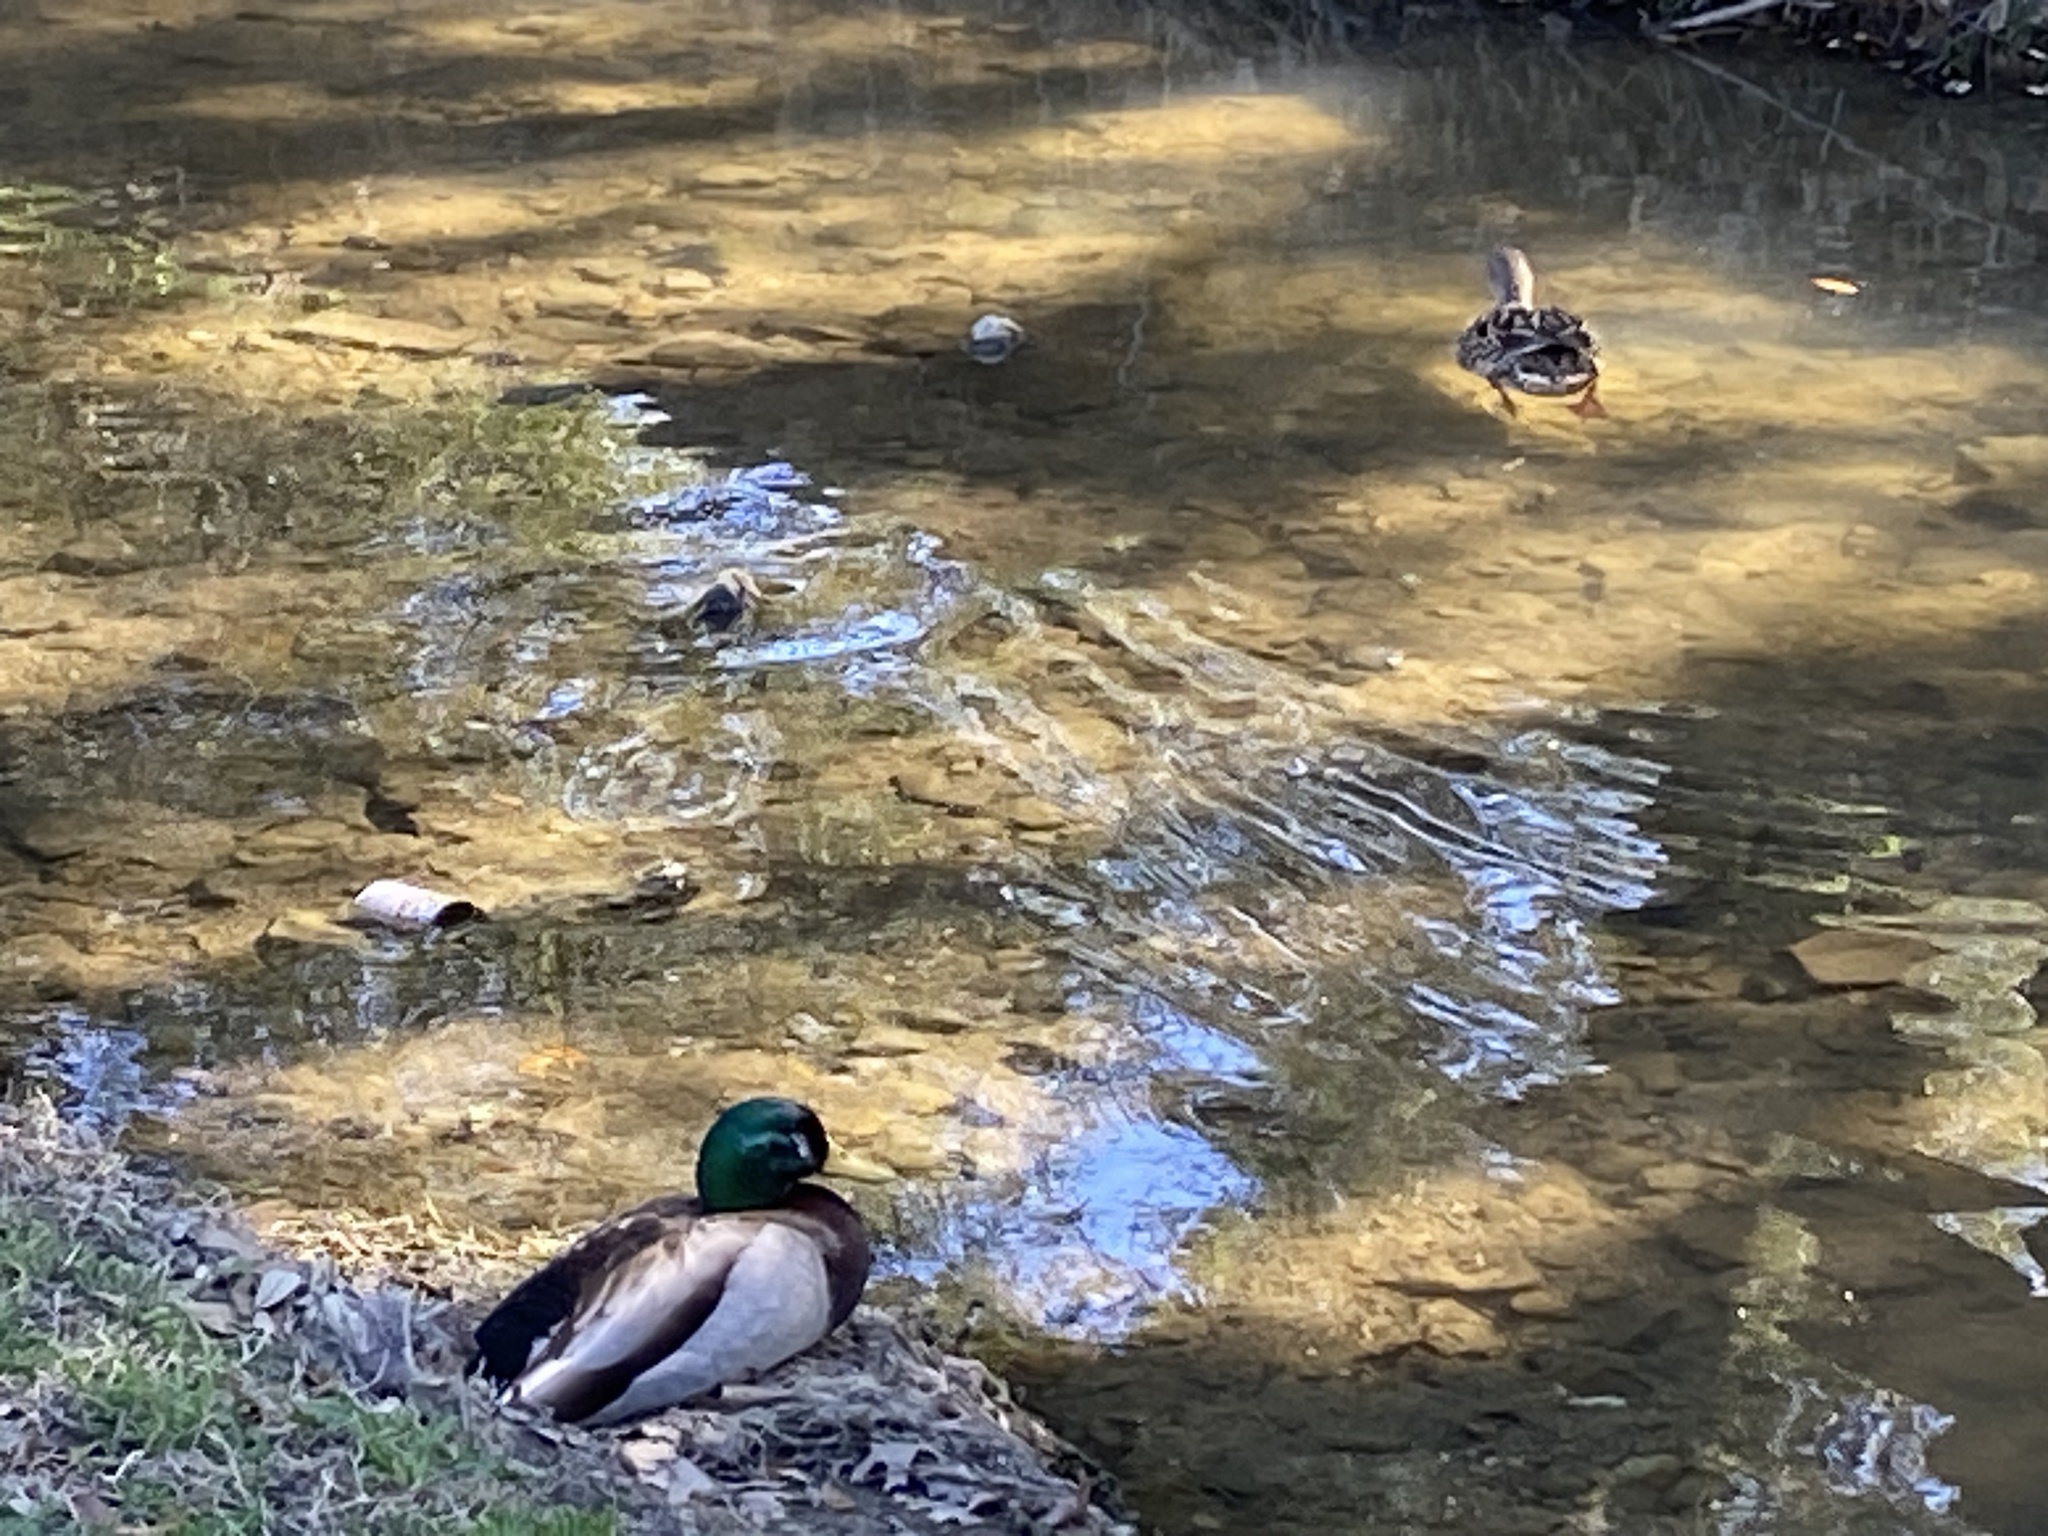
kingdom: Animalia
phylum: Chordata
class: Aves
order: Anseriformes
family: Anatidae
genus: Anas
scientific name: Anas platyrhynchos
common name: Mallard
